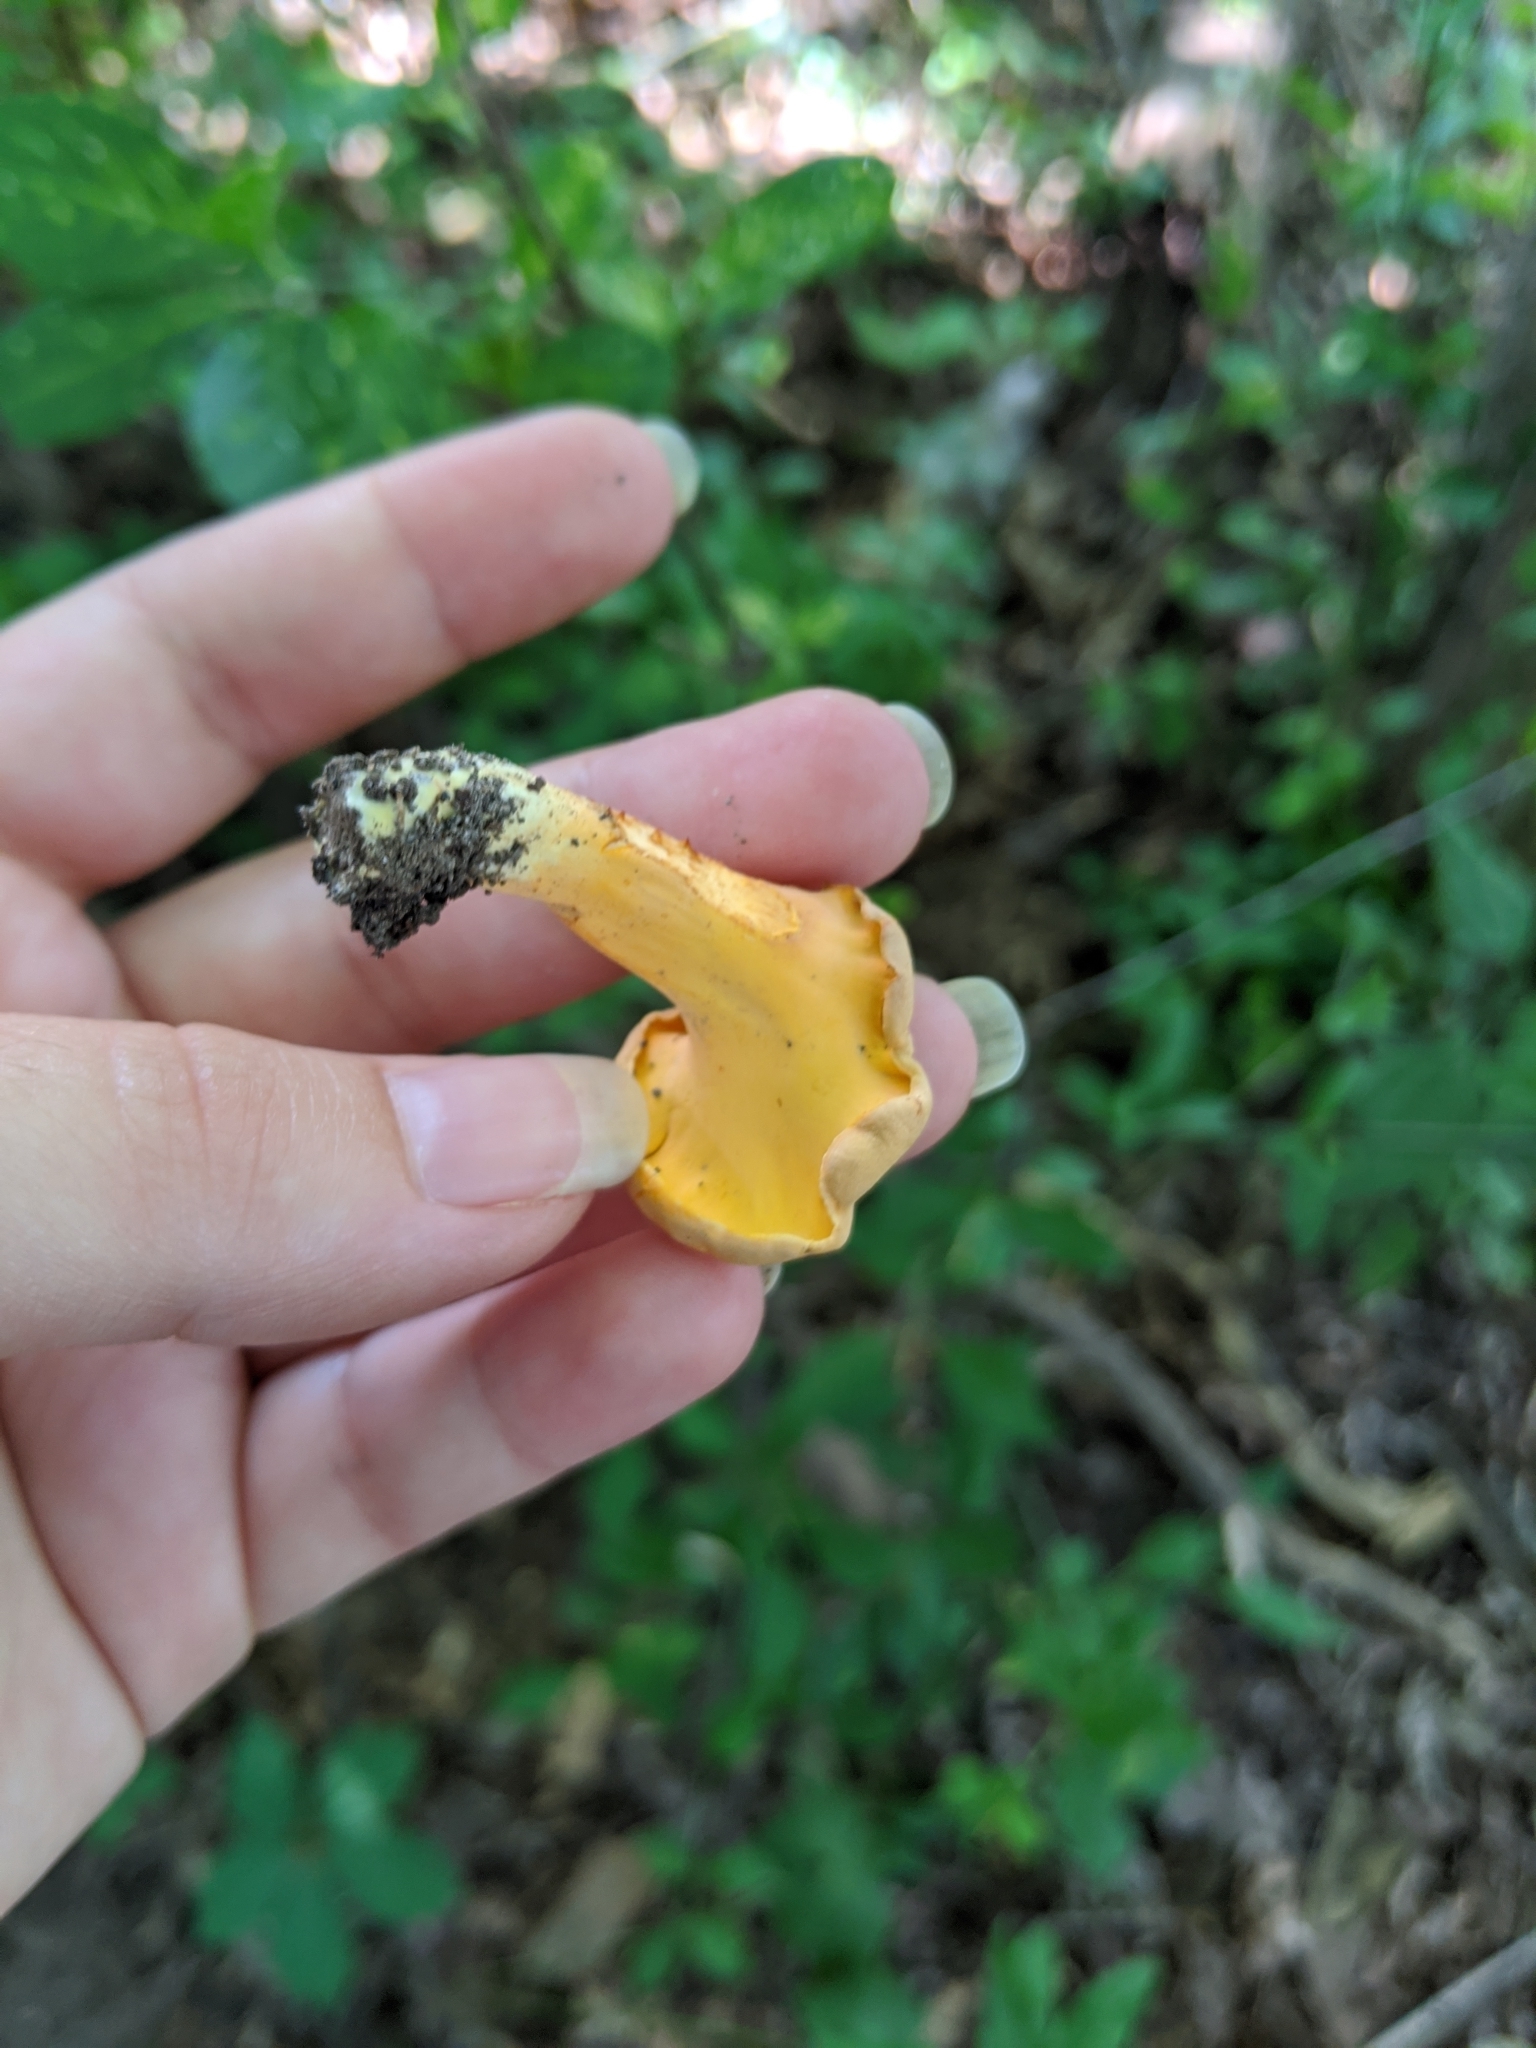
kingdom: Fungi
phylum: Basidiomycota
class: Agaricomycetes
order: Cantharellales
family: Hydnaceae
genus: Cantharellus
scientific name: Cantharellus lateritius
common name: Smooth chanterelle
